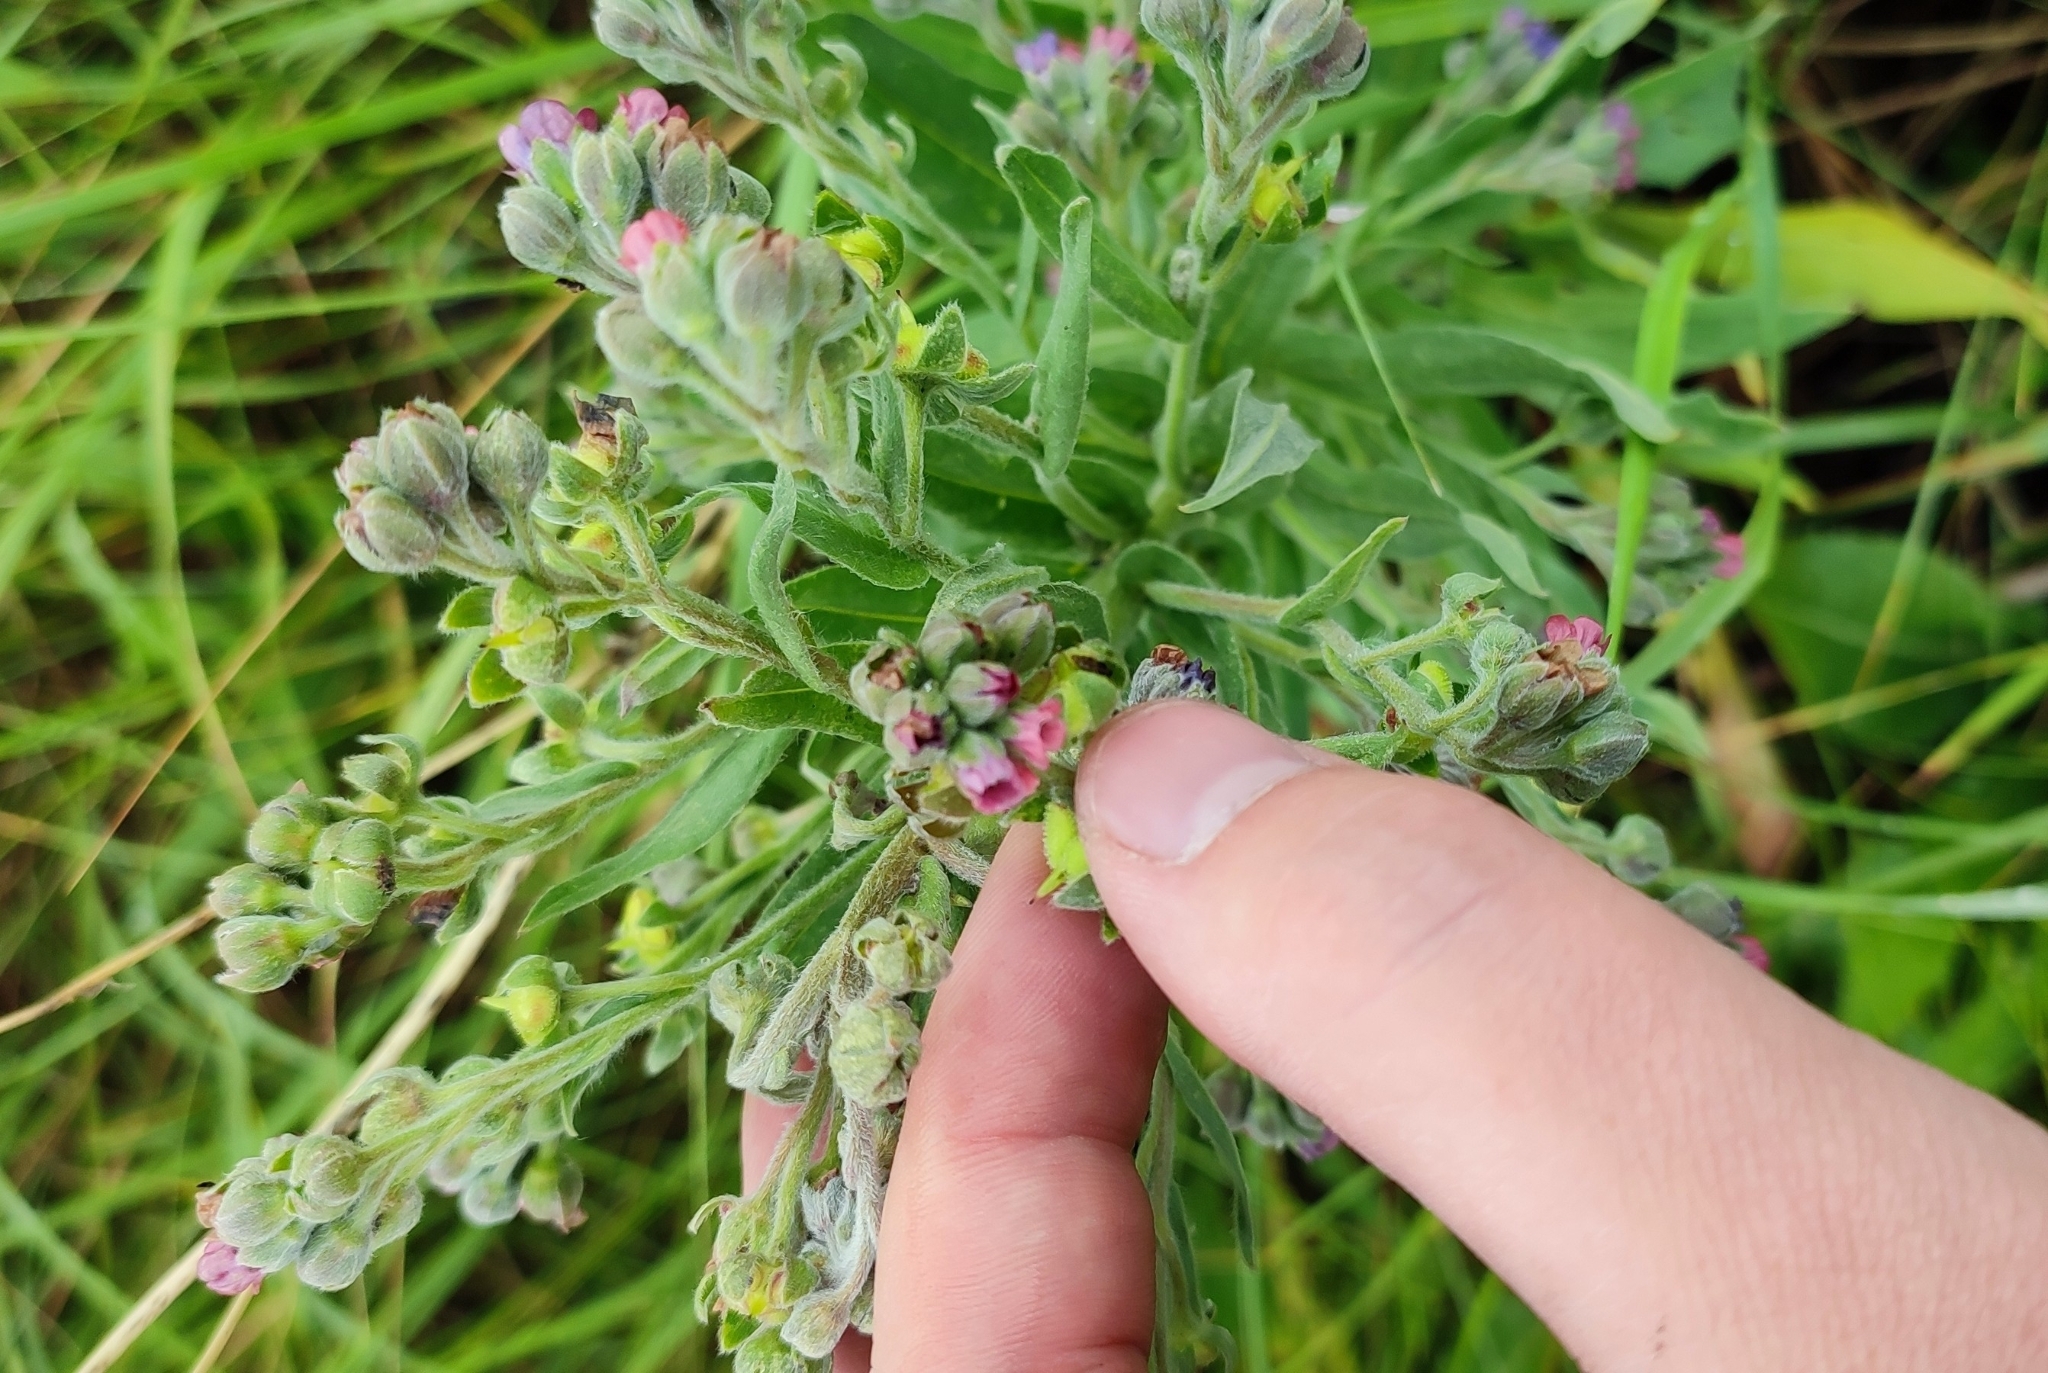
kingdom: Plantae
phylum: Tracheophyta
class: Magnoliopsida
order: Boraginales
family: Boraginaceae
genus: Cynoglossum
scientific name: Cynoglossum officinale
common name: Hound's-tongue
